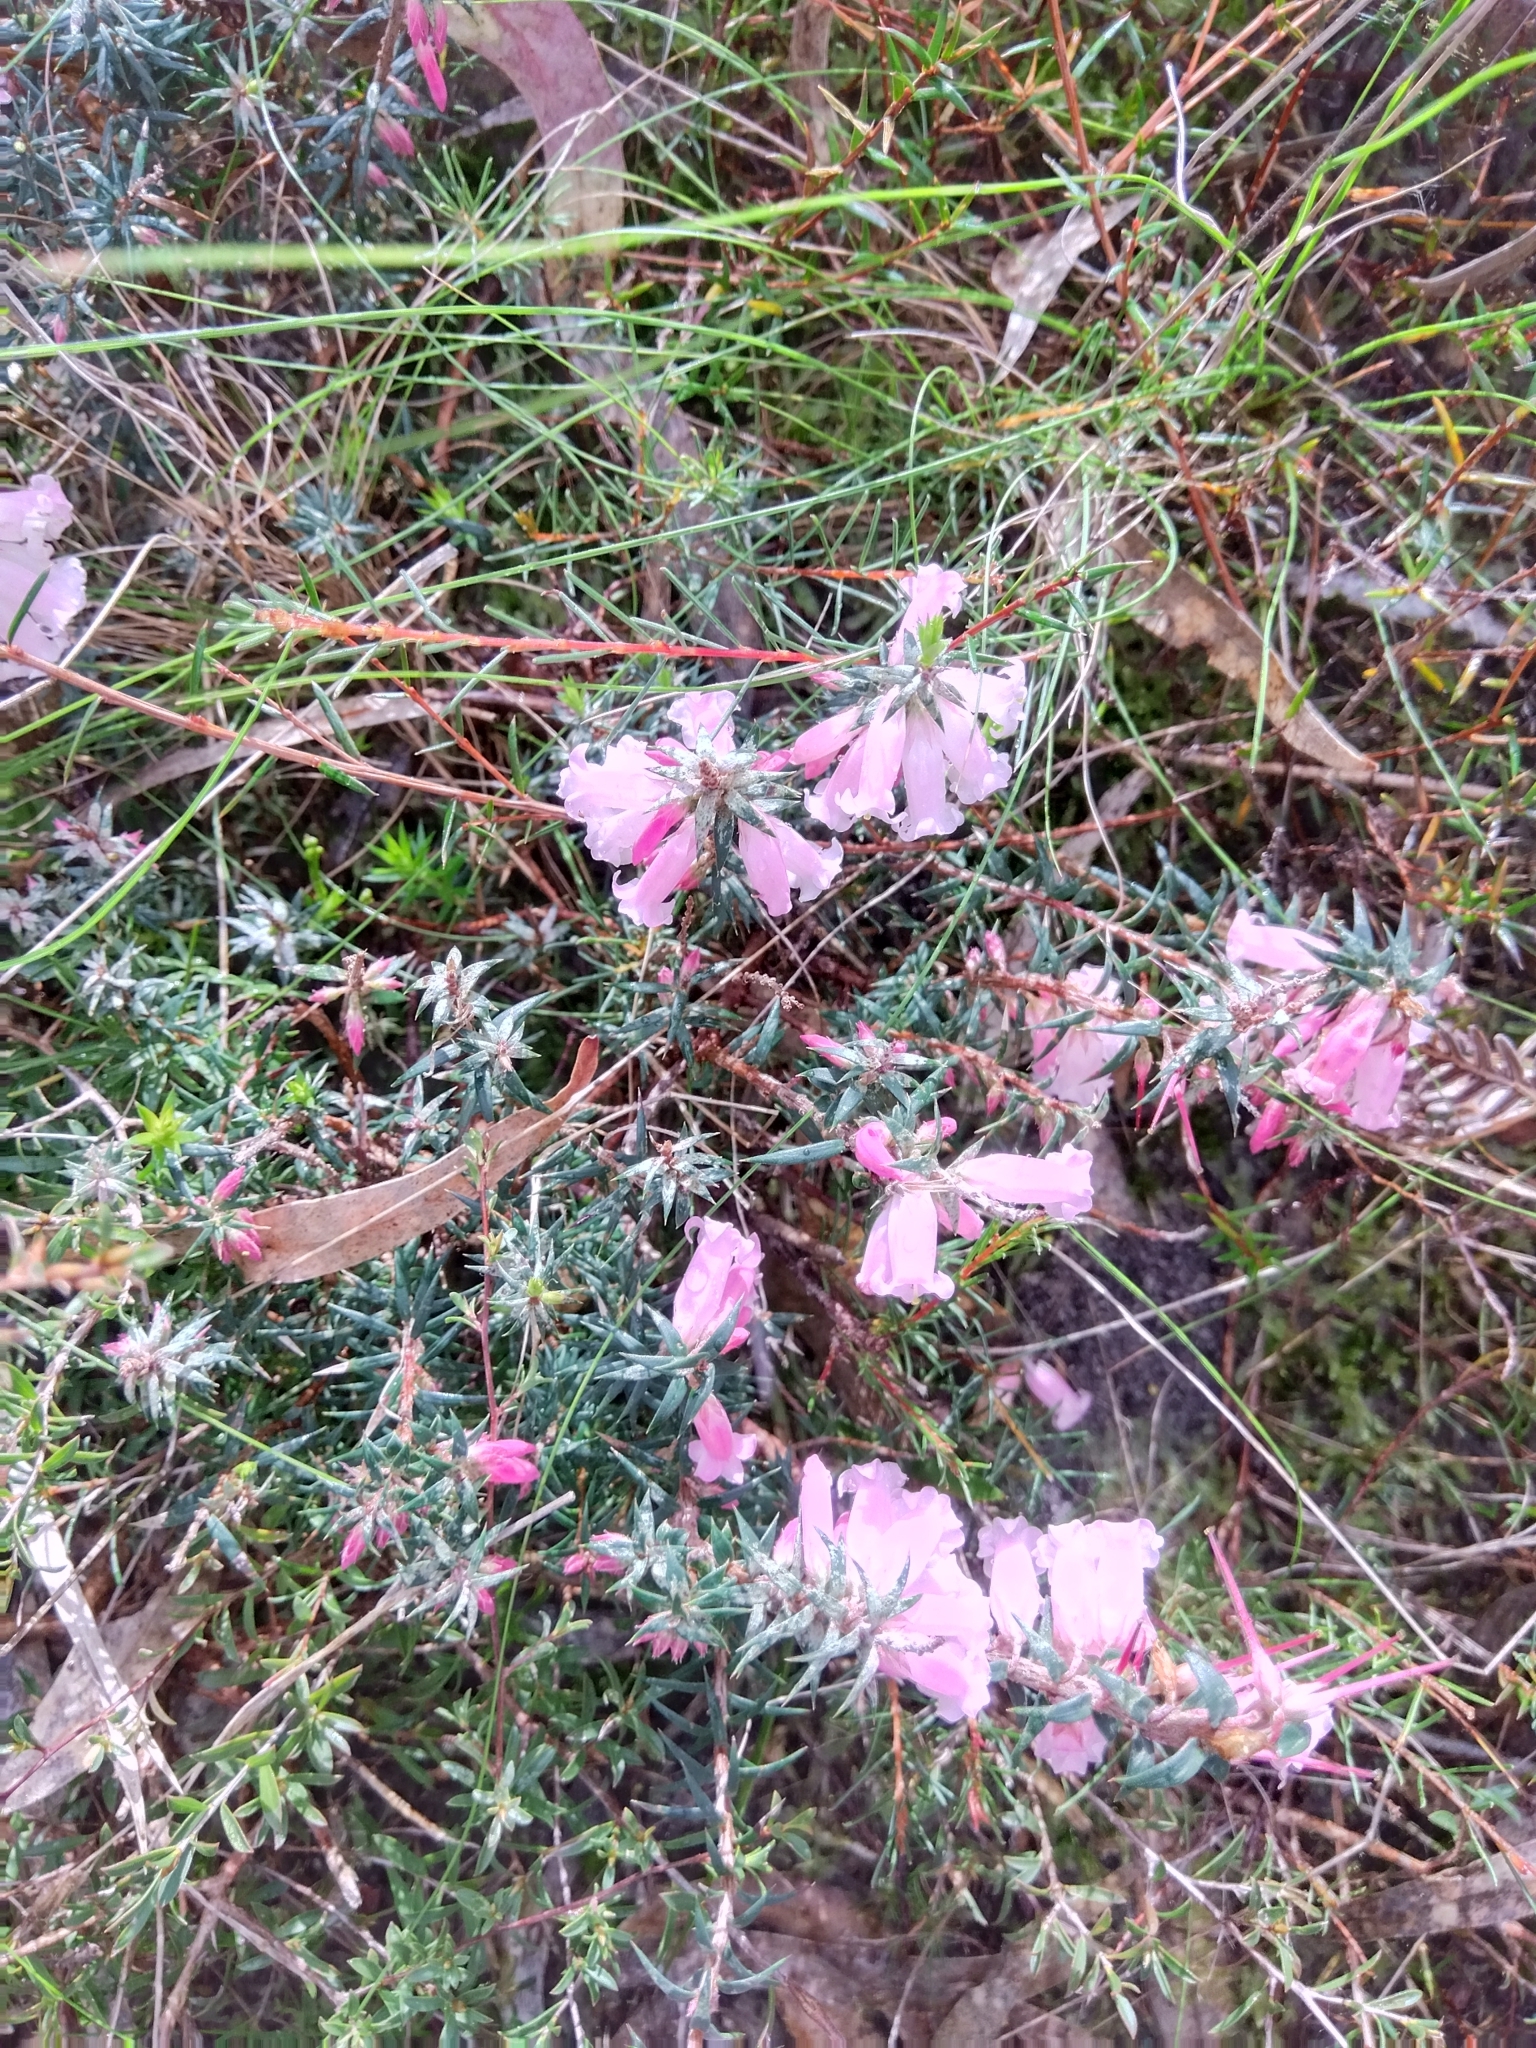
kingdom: Plantae
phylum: Tracheophyta
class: Magnoliopsida
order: Ericales
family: Ericaceae
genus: Epacris
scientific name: Epacris impressa
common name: Common-heath
